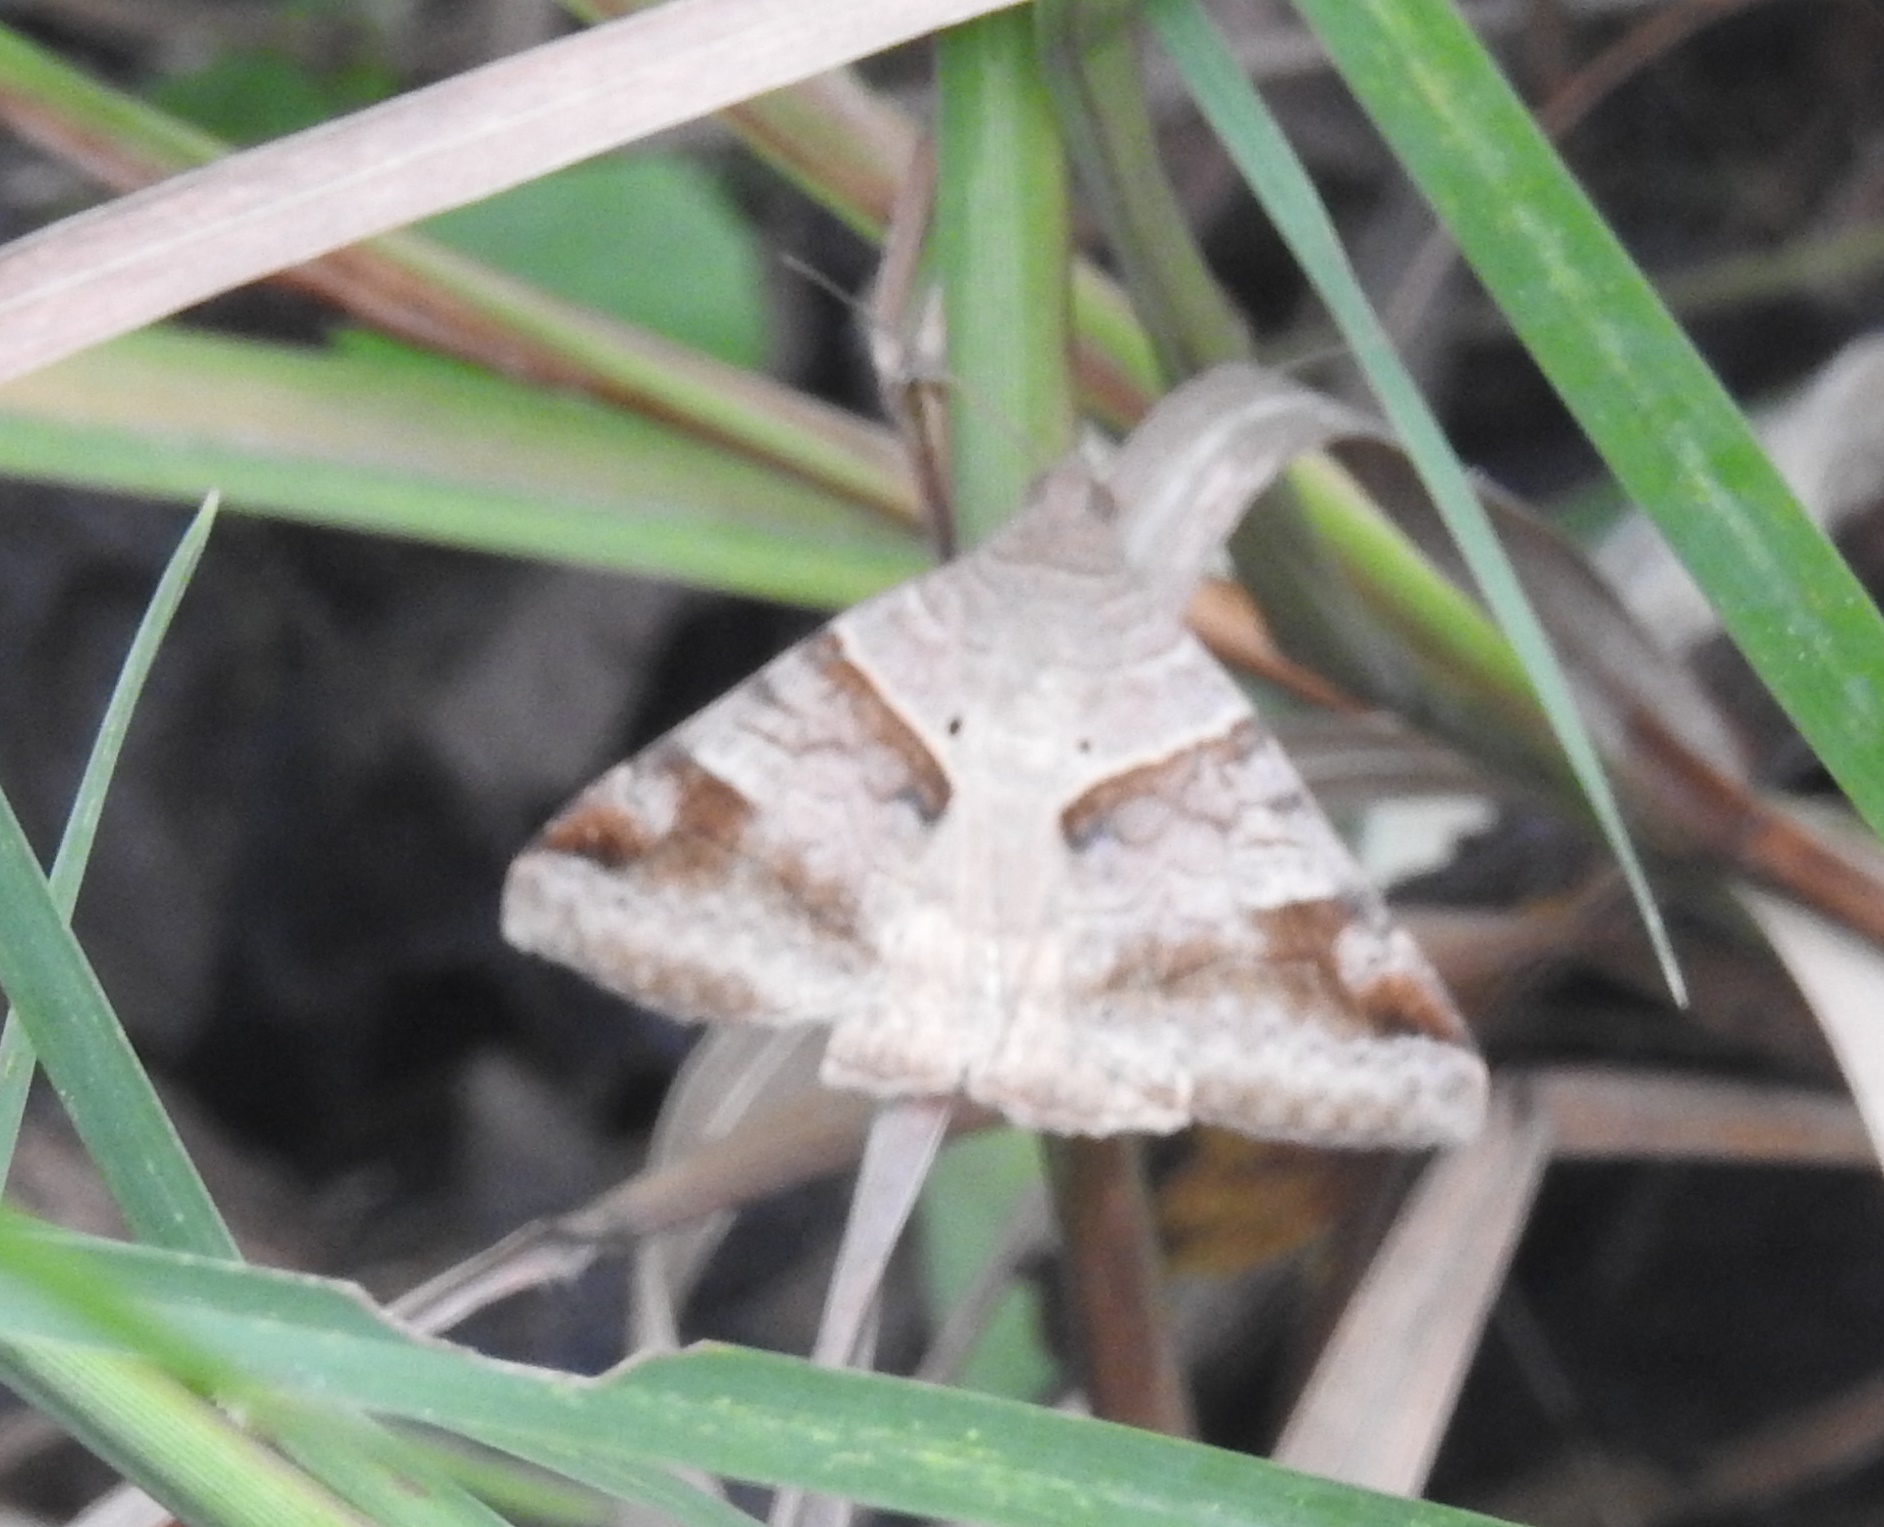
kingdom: Animalia
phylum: Arthropoda
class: Insecta
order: Lepidoptera
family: Erebidae
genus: Mocis
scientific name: Mocis undata
